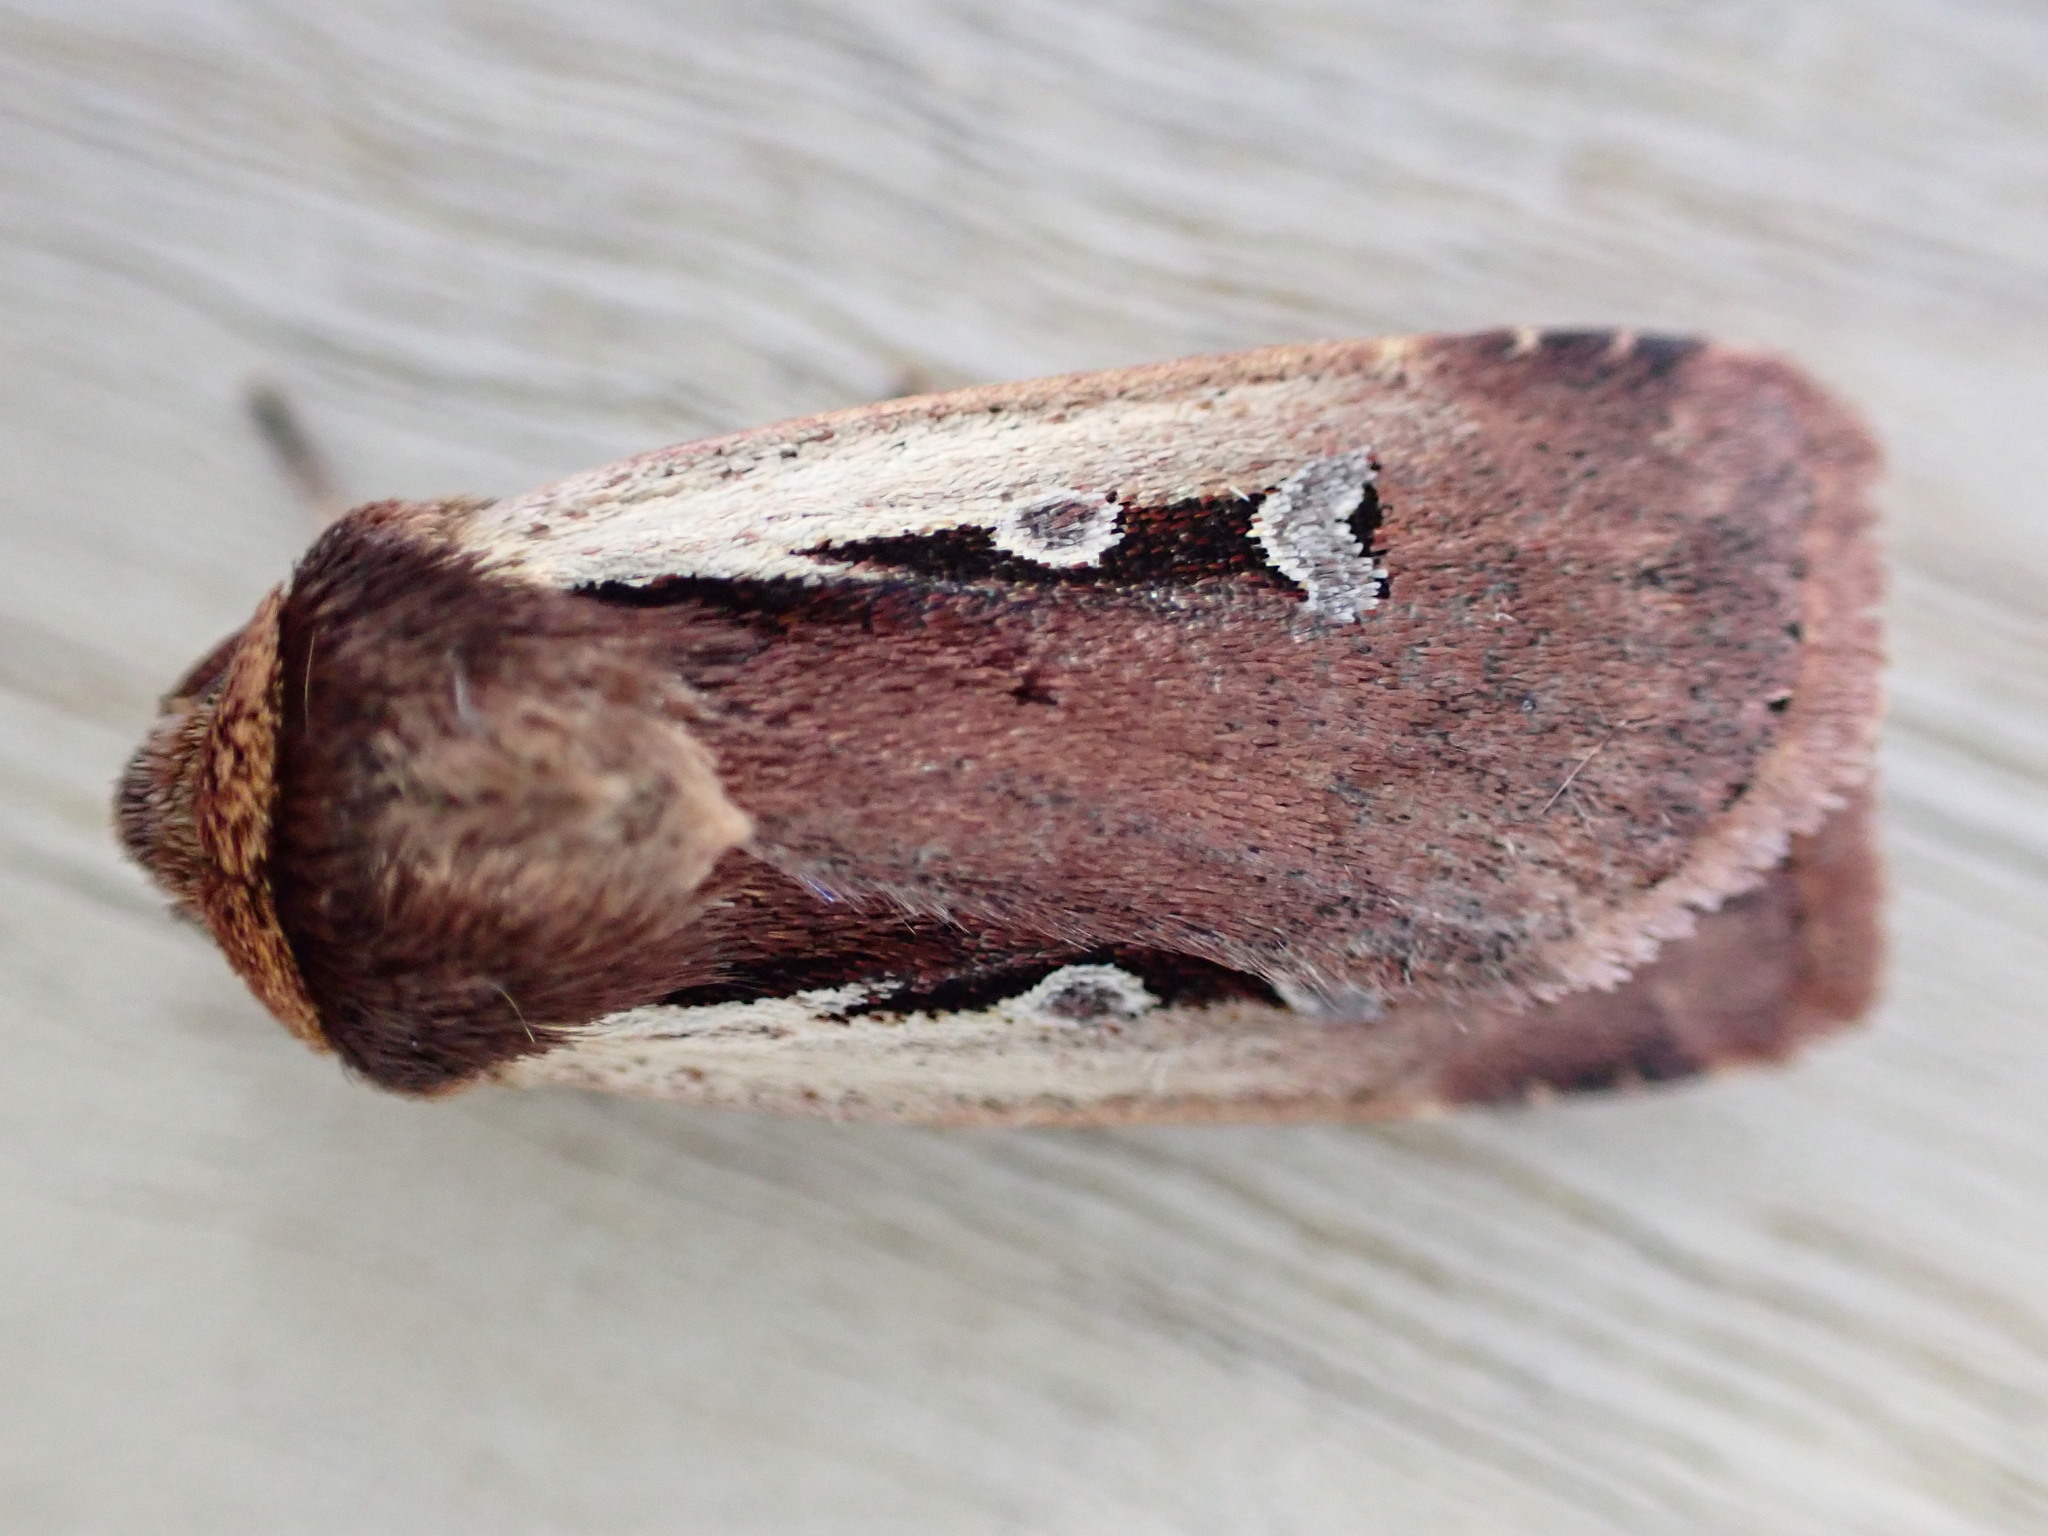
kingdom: Animalia
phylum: Arthropoda
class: Insecta
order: Lepidoptera
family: Noctuidae
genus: Ochropleura
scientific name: Ochropleura plecta
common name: Flame shoulder
